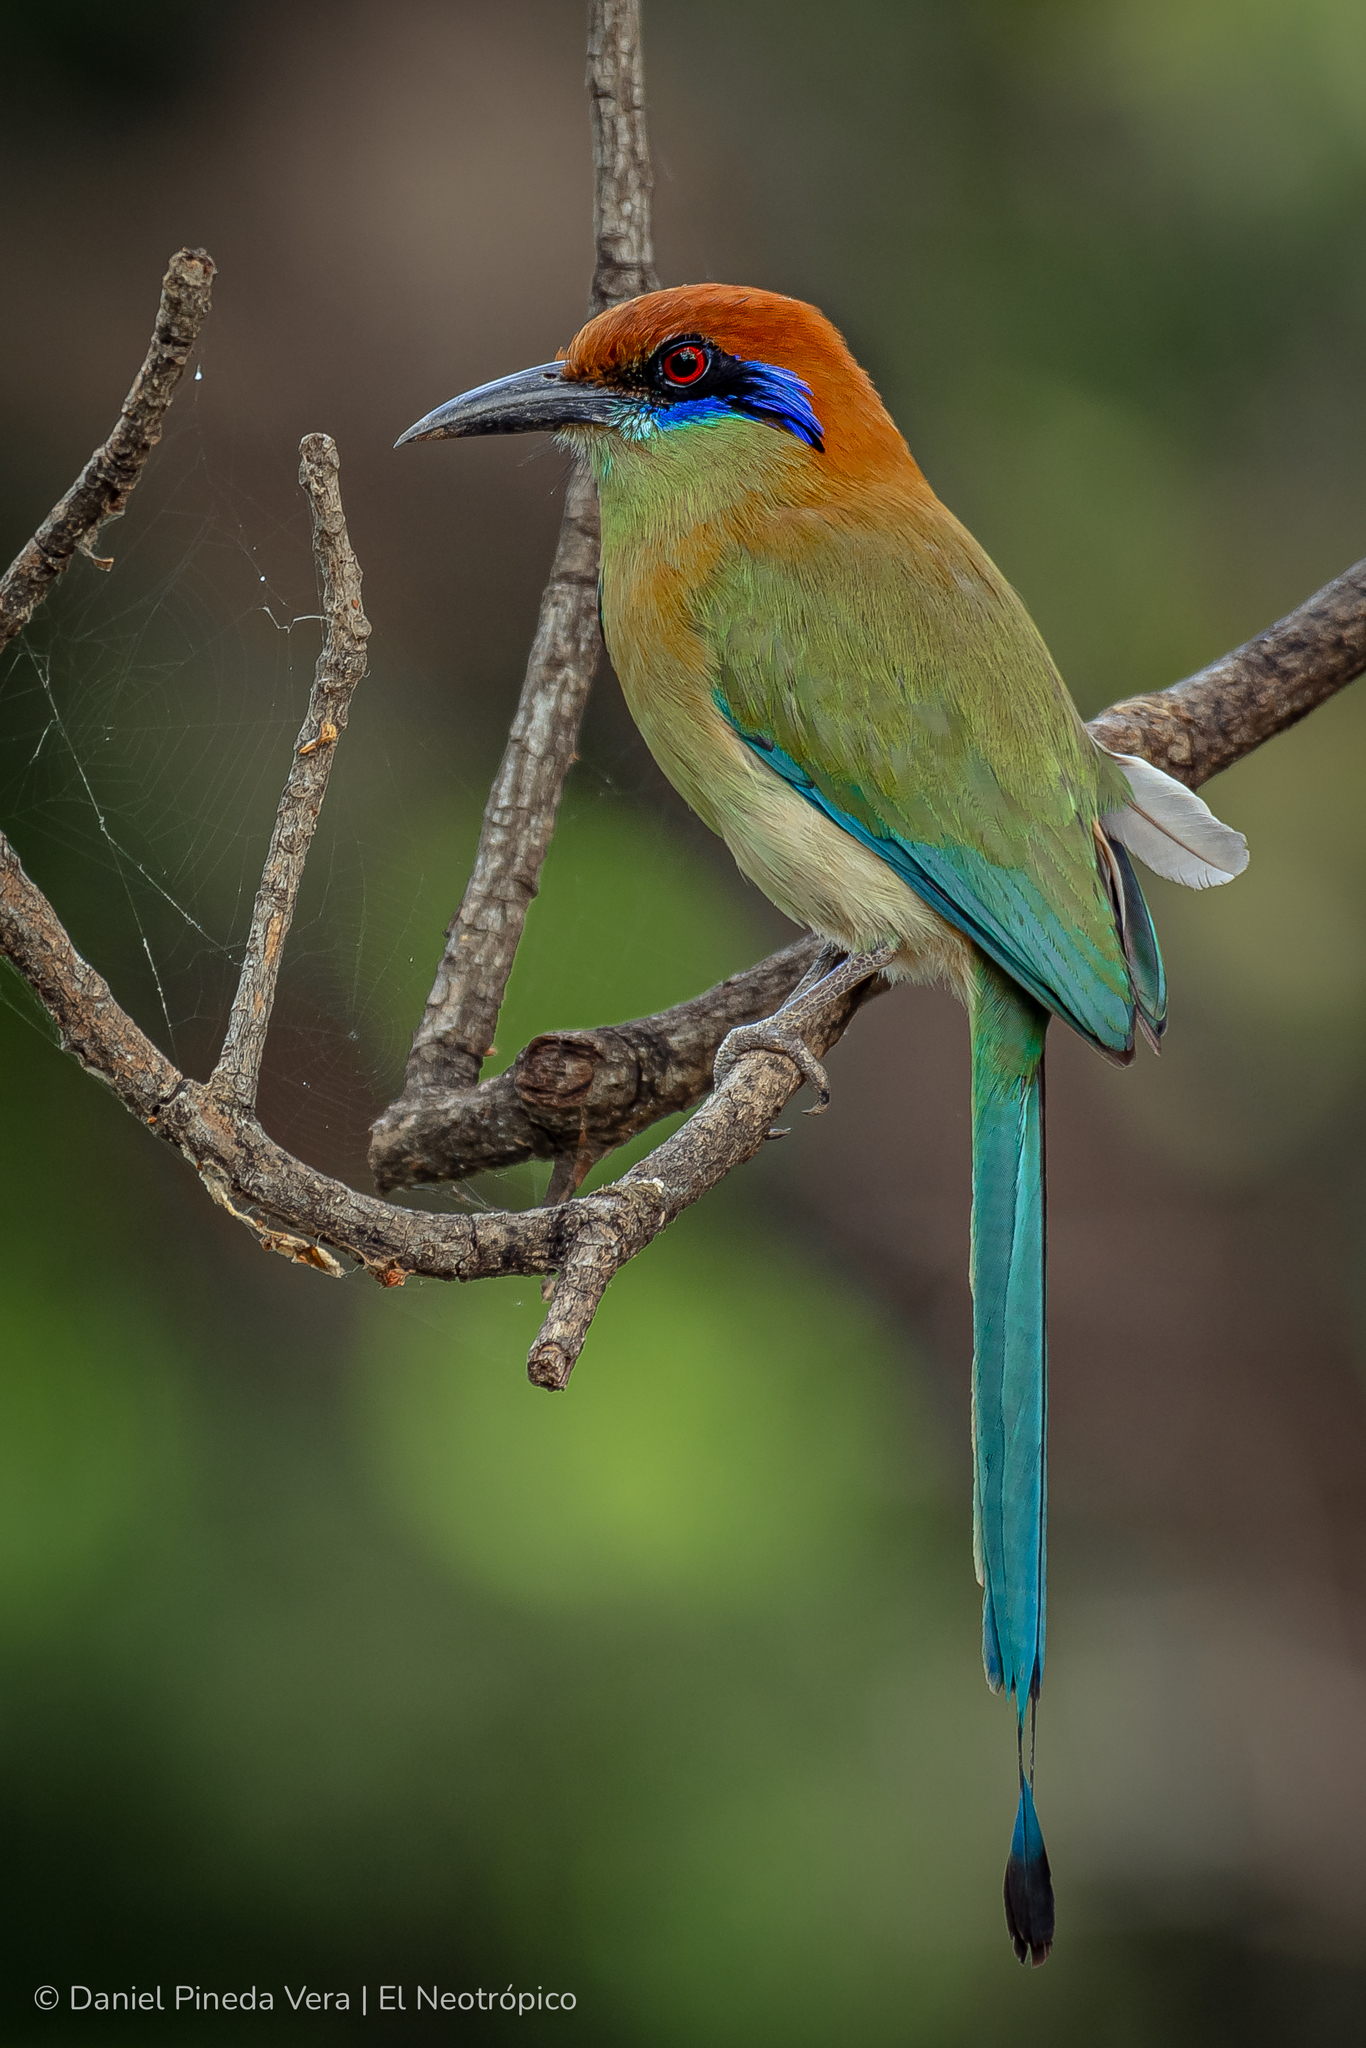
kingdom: Animalia
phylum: Chordata
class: Aves
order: Coraciiformes
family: Momotidae
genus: Momotus
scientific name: Momotus mexicanus
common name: Russet-crowned motmot
